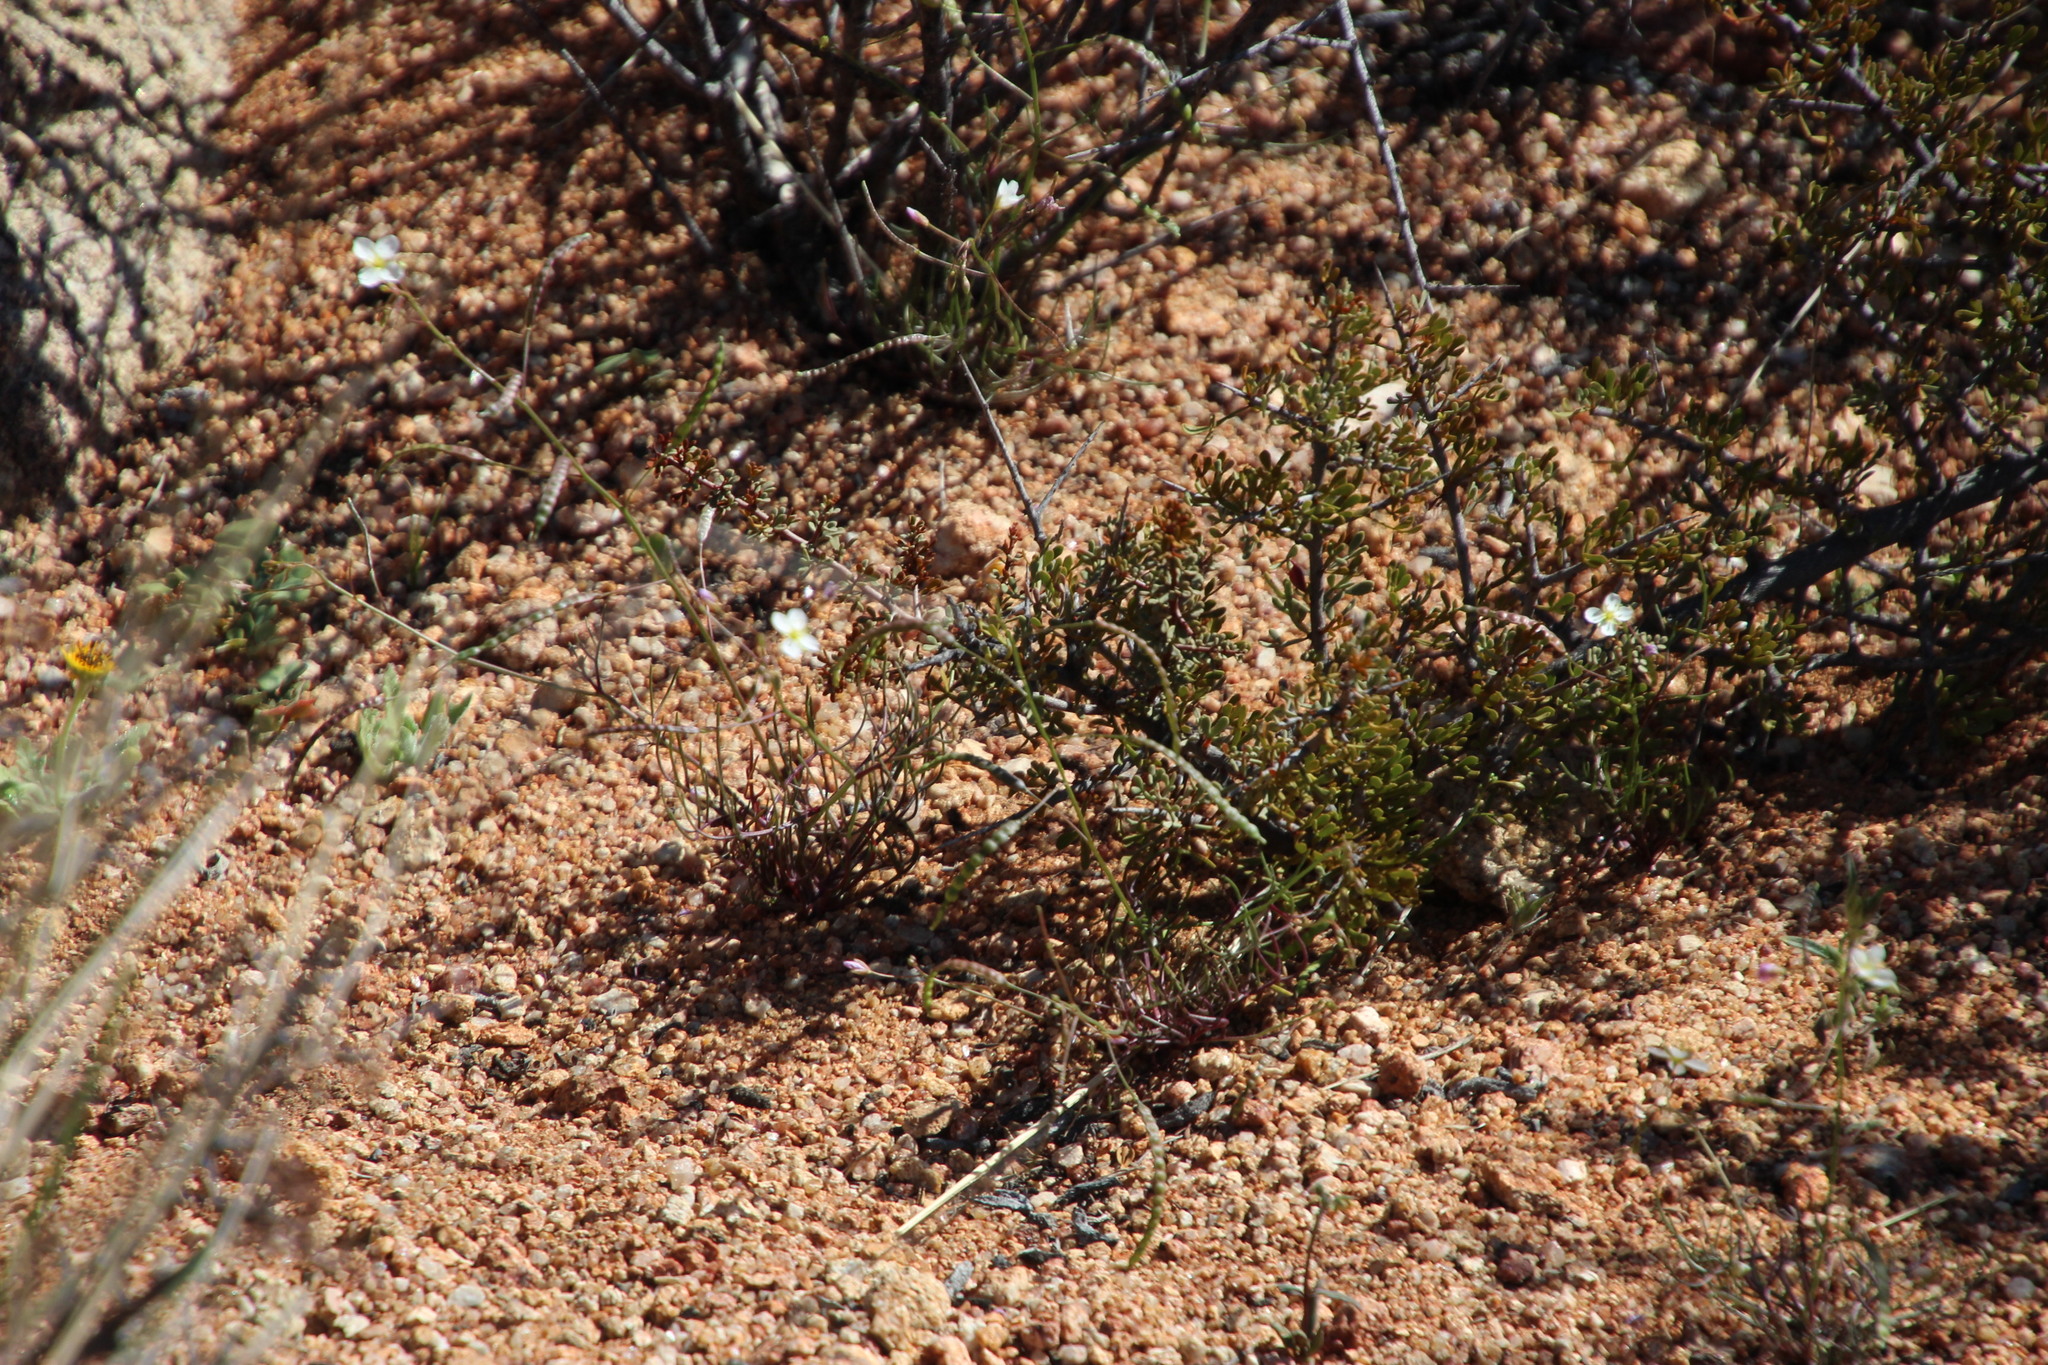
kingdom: Plantae
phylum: Tracheophyta
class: Magnoliopsida
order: Brassicales
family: Brassicaceae
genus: Heliophila
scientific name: Heliophila variabilis
